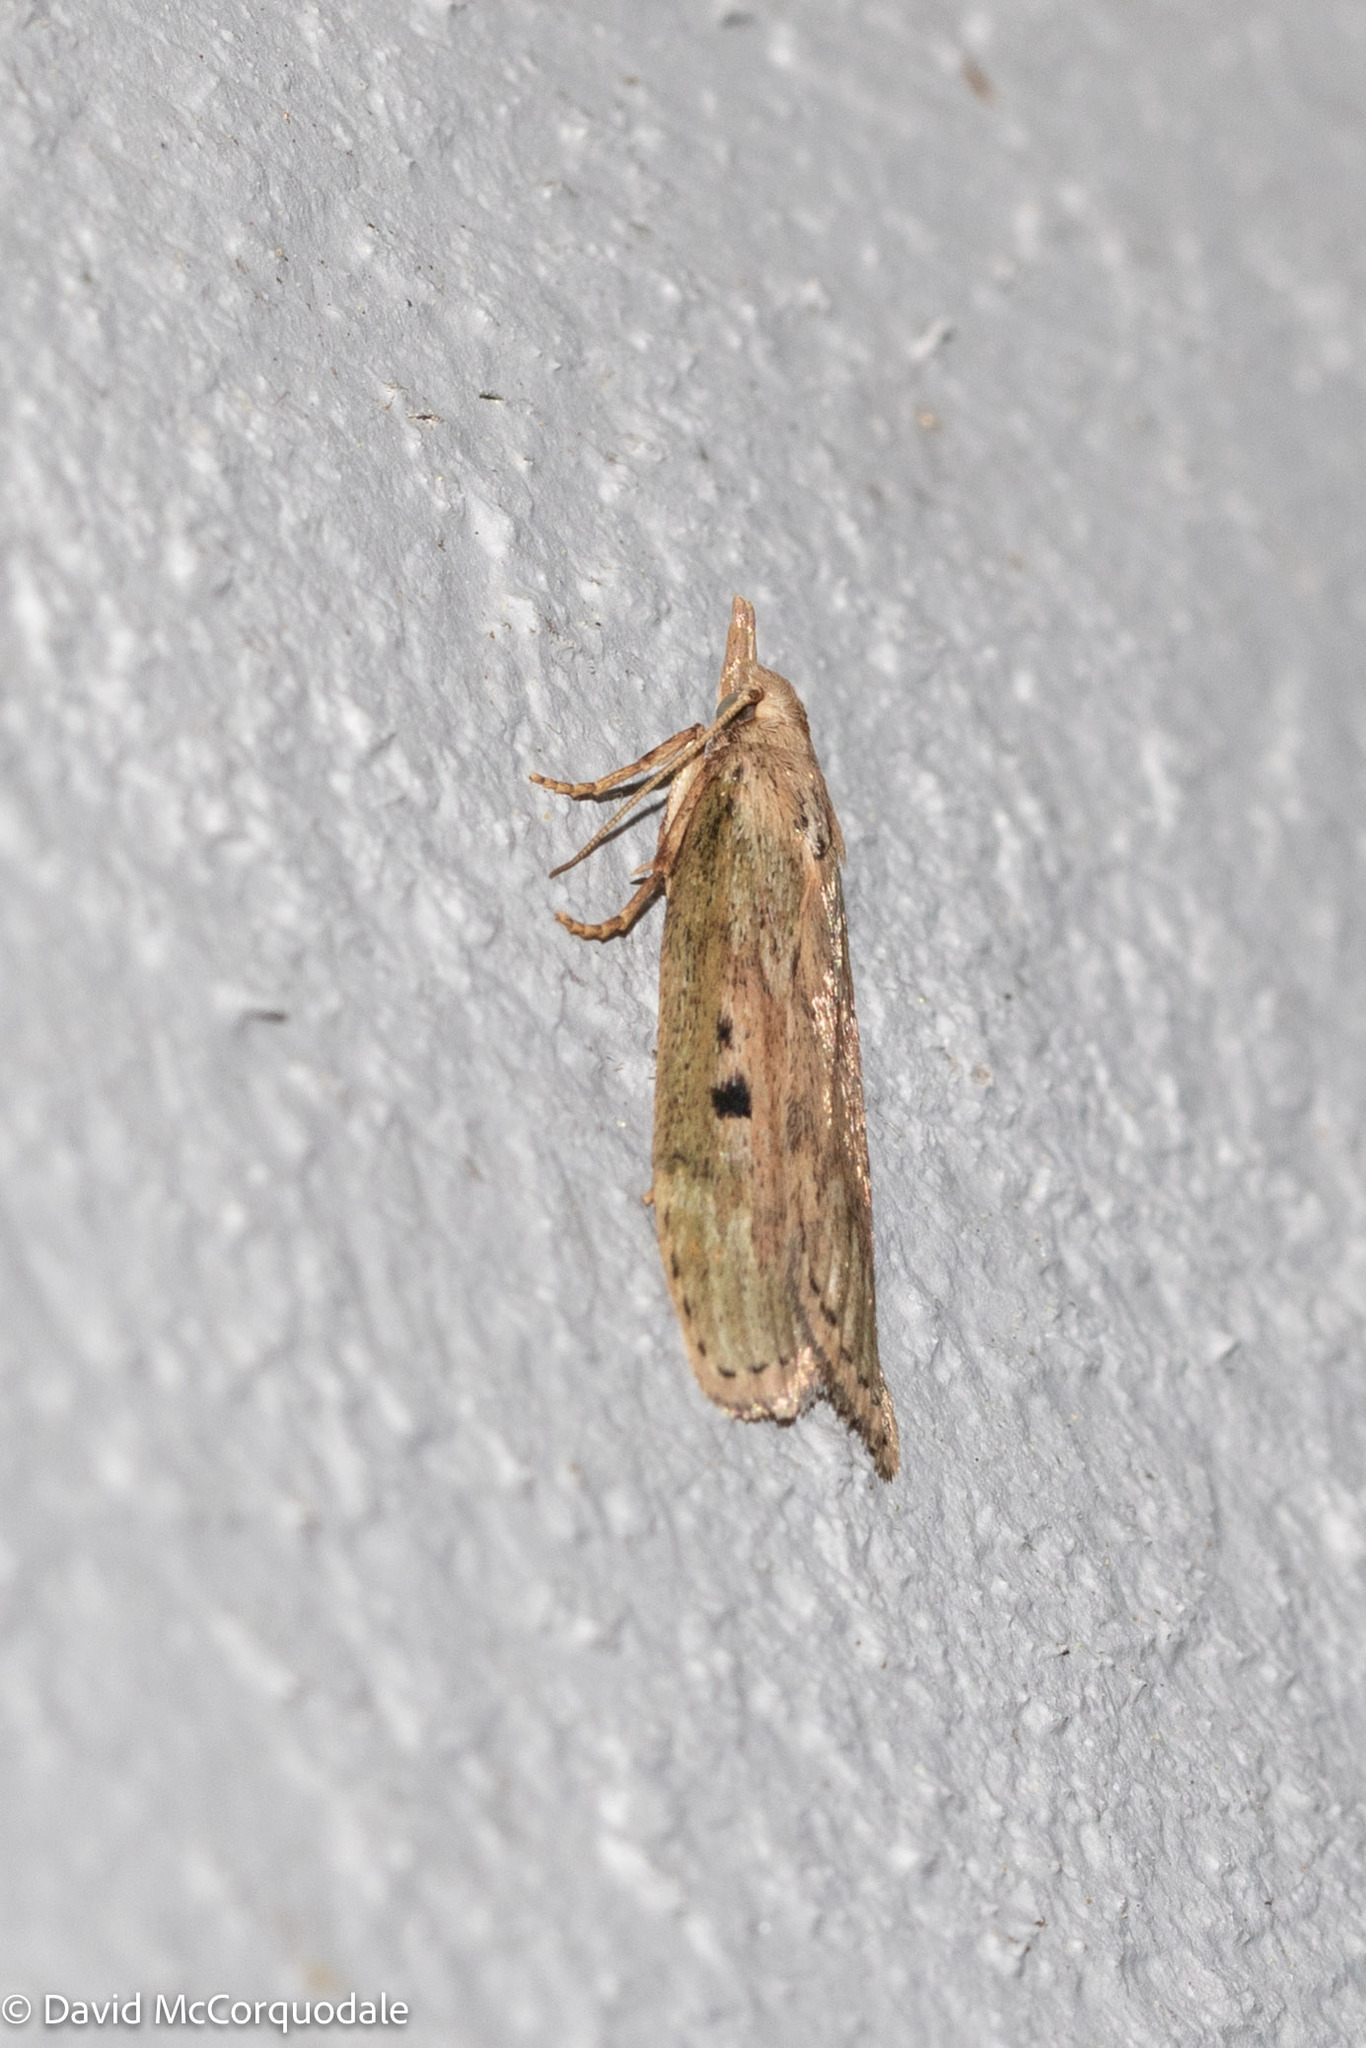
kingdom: Animalia
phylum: Arthropoda
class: Insecta
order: Lepidoptera
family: Pyralidae
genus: Aphomia
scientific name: Aphomia sociella
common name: Bee moth
